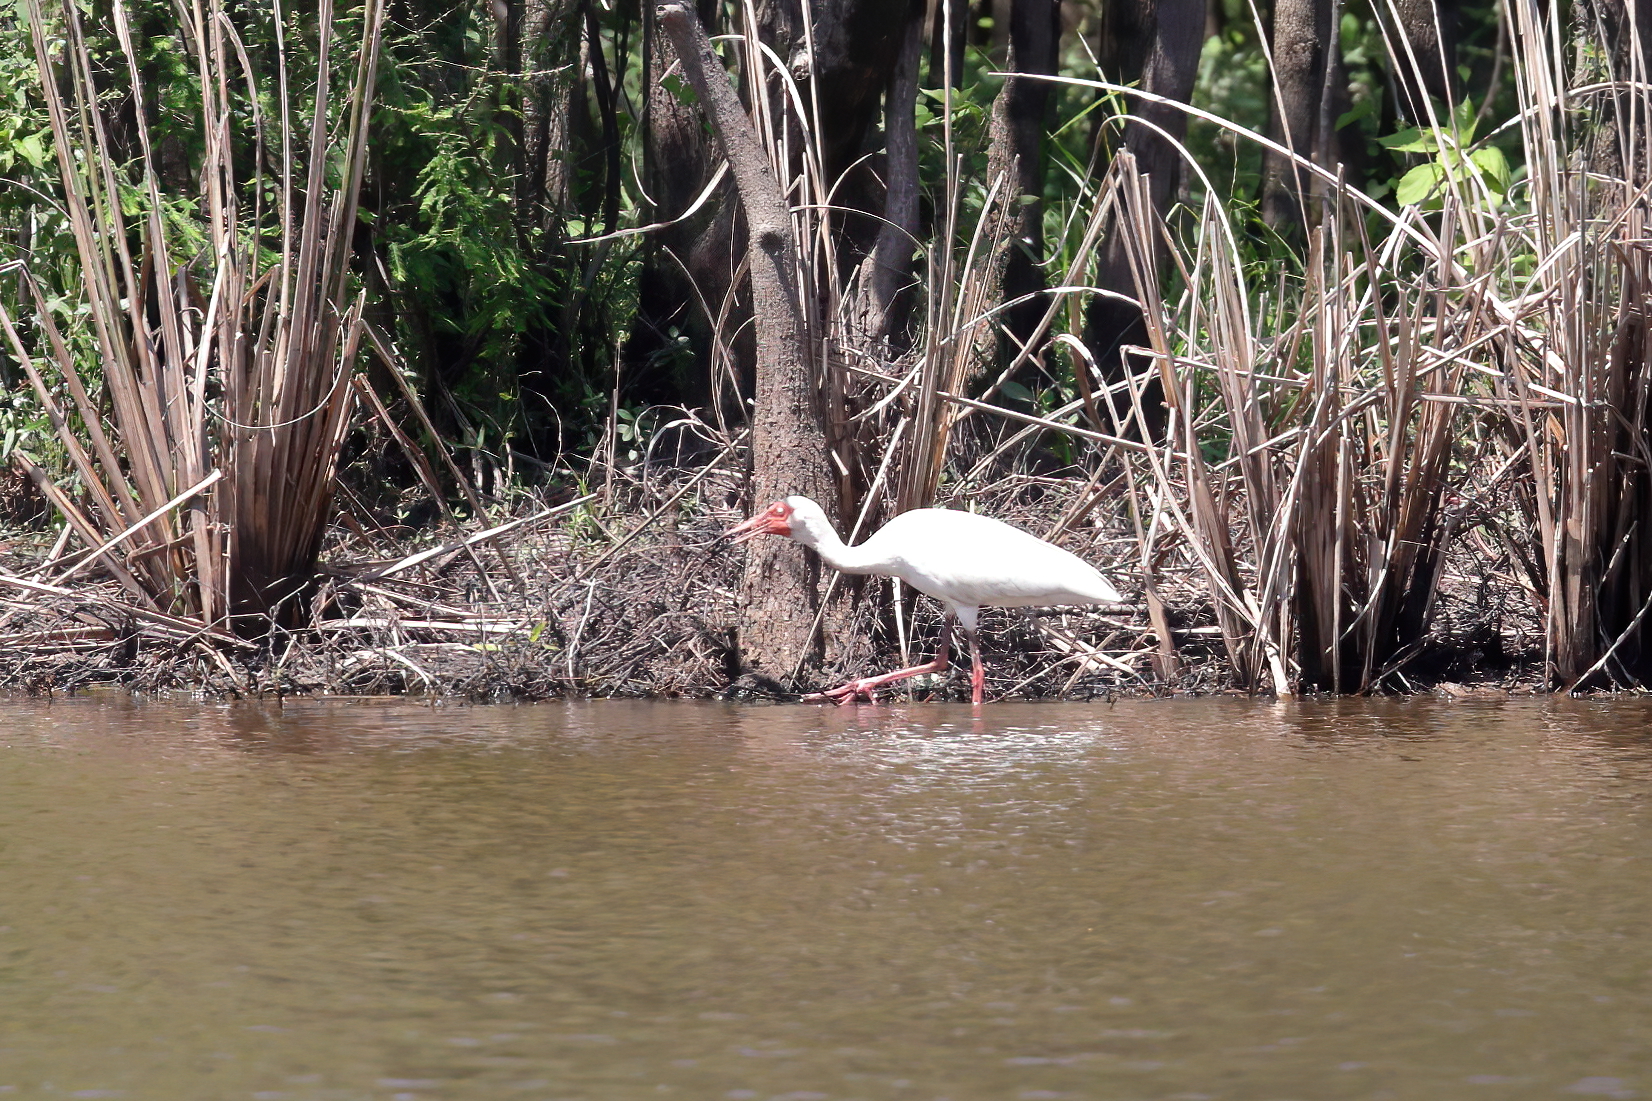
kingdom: Animalia
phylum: Chordata
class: Aves
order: Pelecaniformes
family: Threskiornithidae
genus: Eudocimus
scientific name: Eudocimus albus
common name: White ibis
